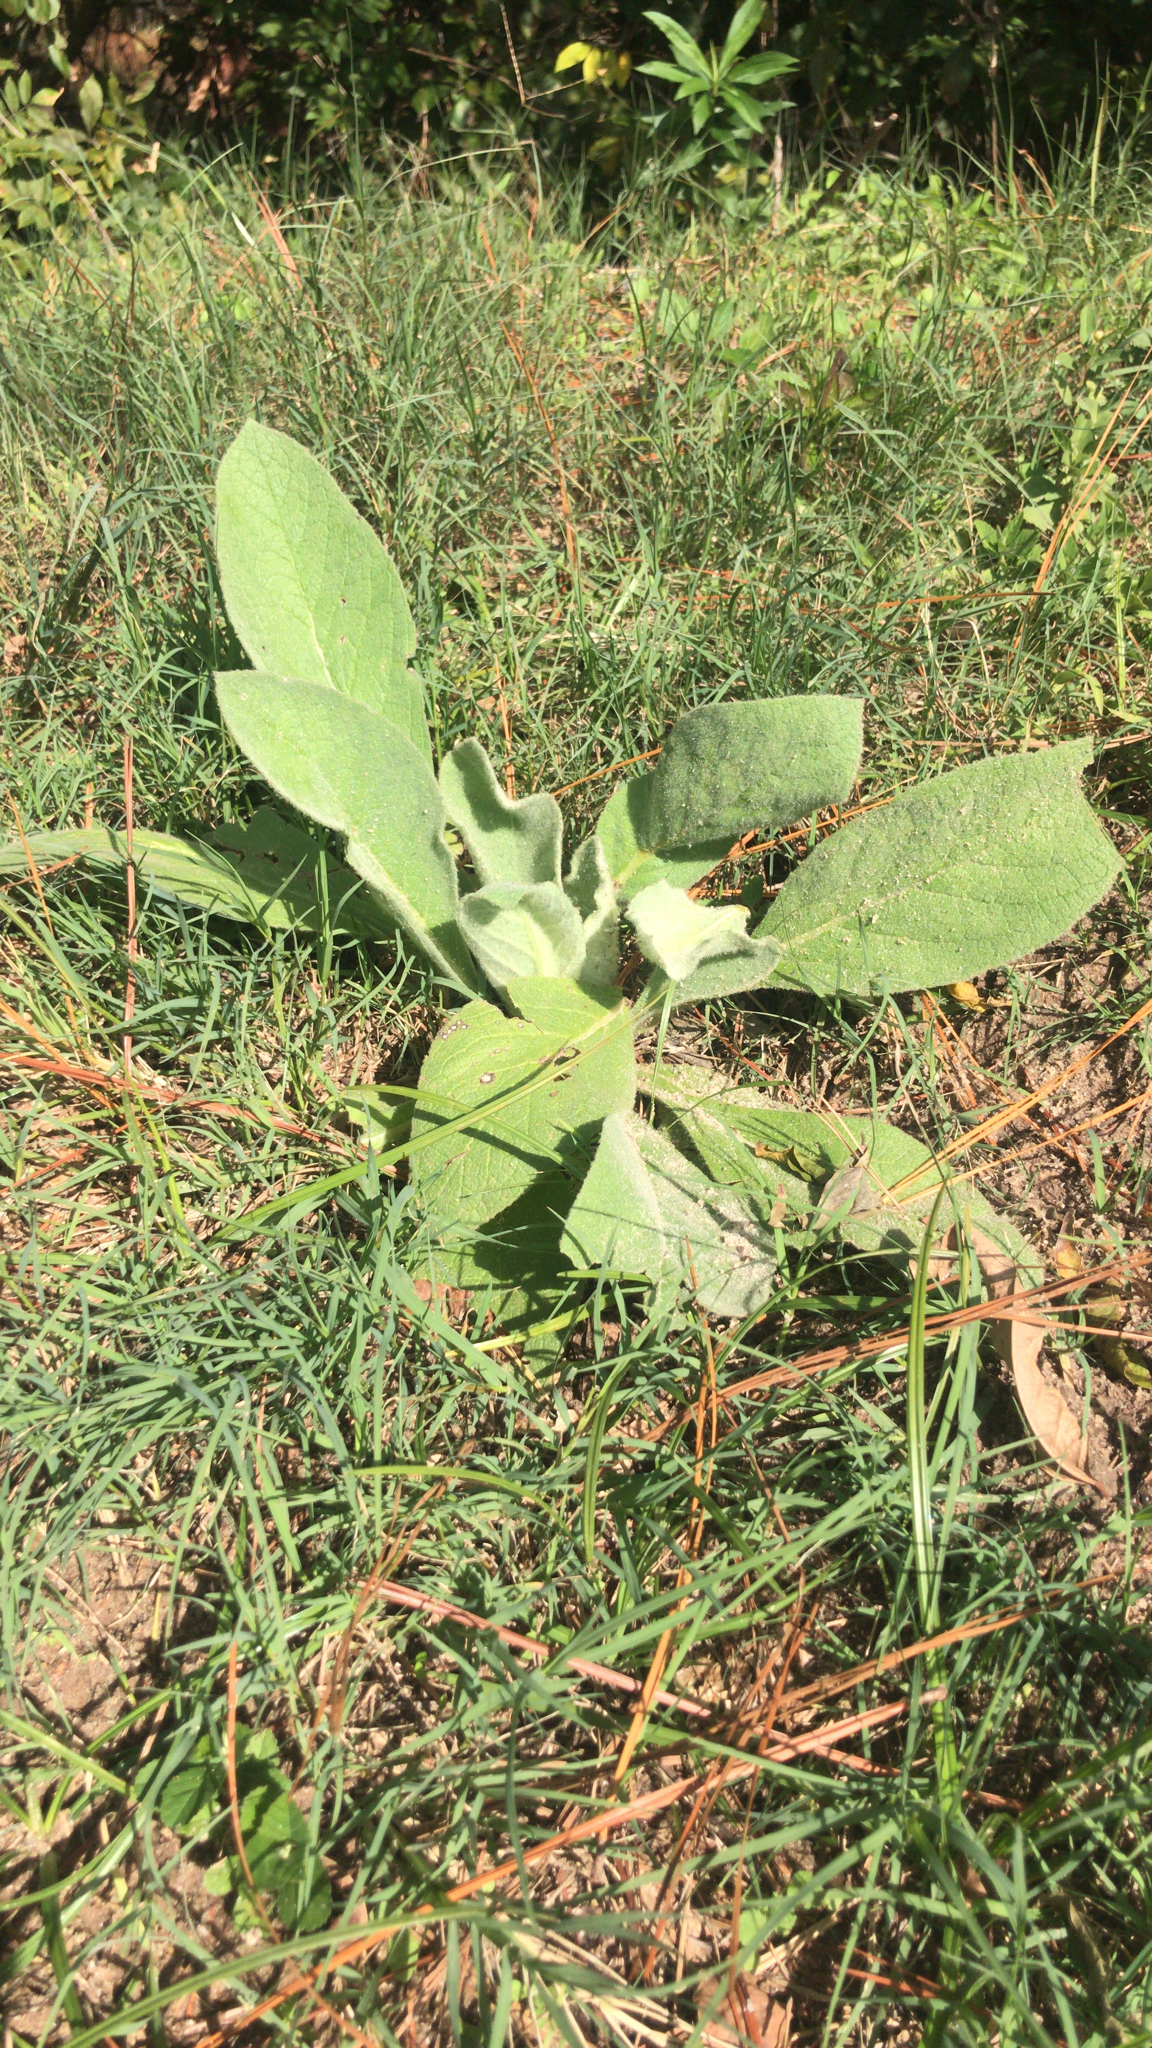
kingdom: Plantae
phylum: Tracheophyta
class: Magnoliopsida
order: Lamiales
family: Scrophulariaceae
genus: Verbascum
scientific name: Verbascum thapsus
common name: Common mullein
